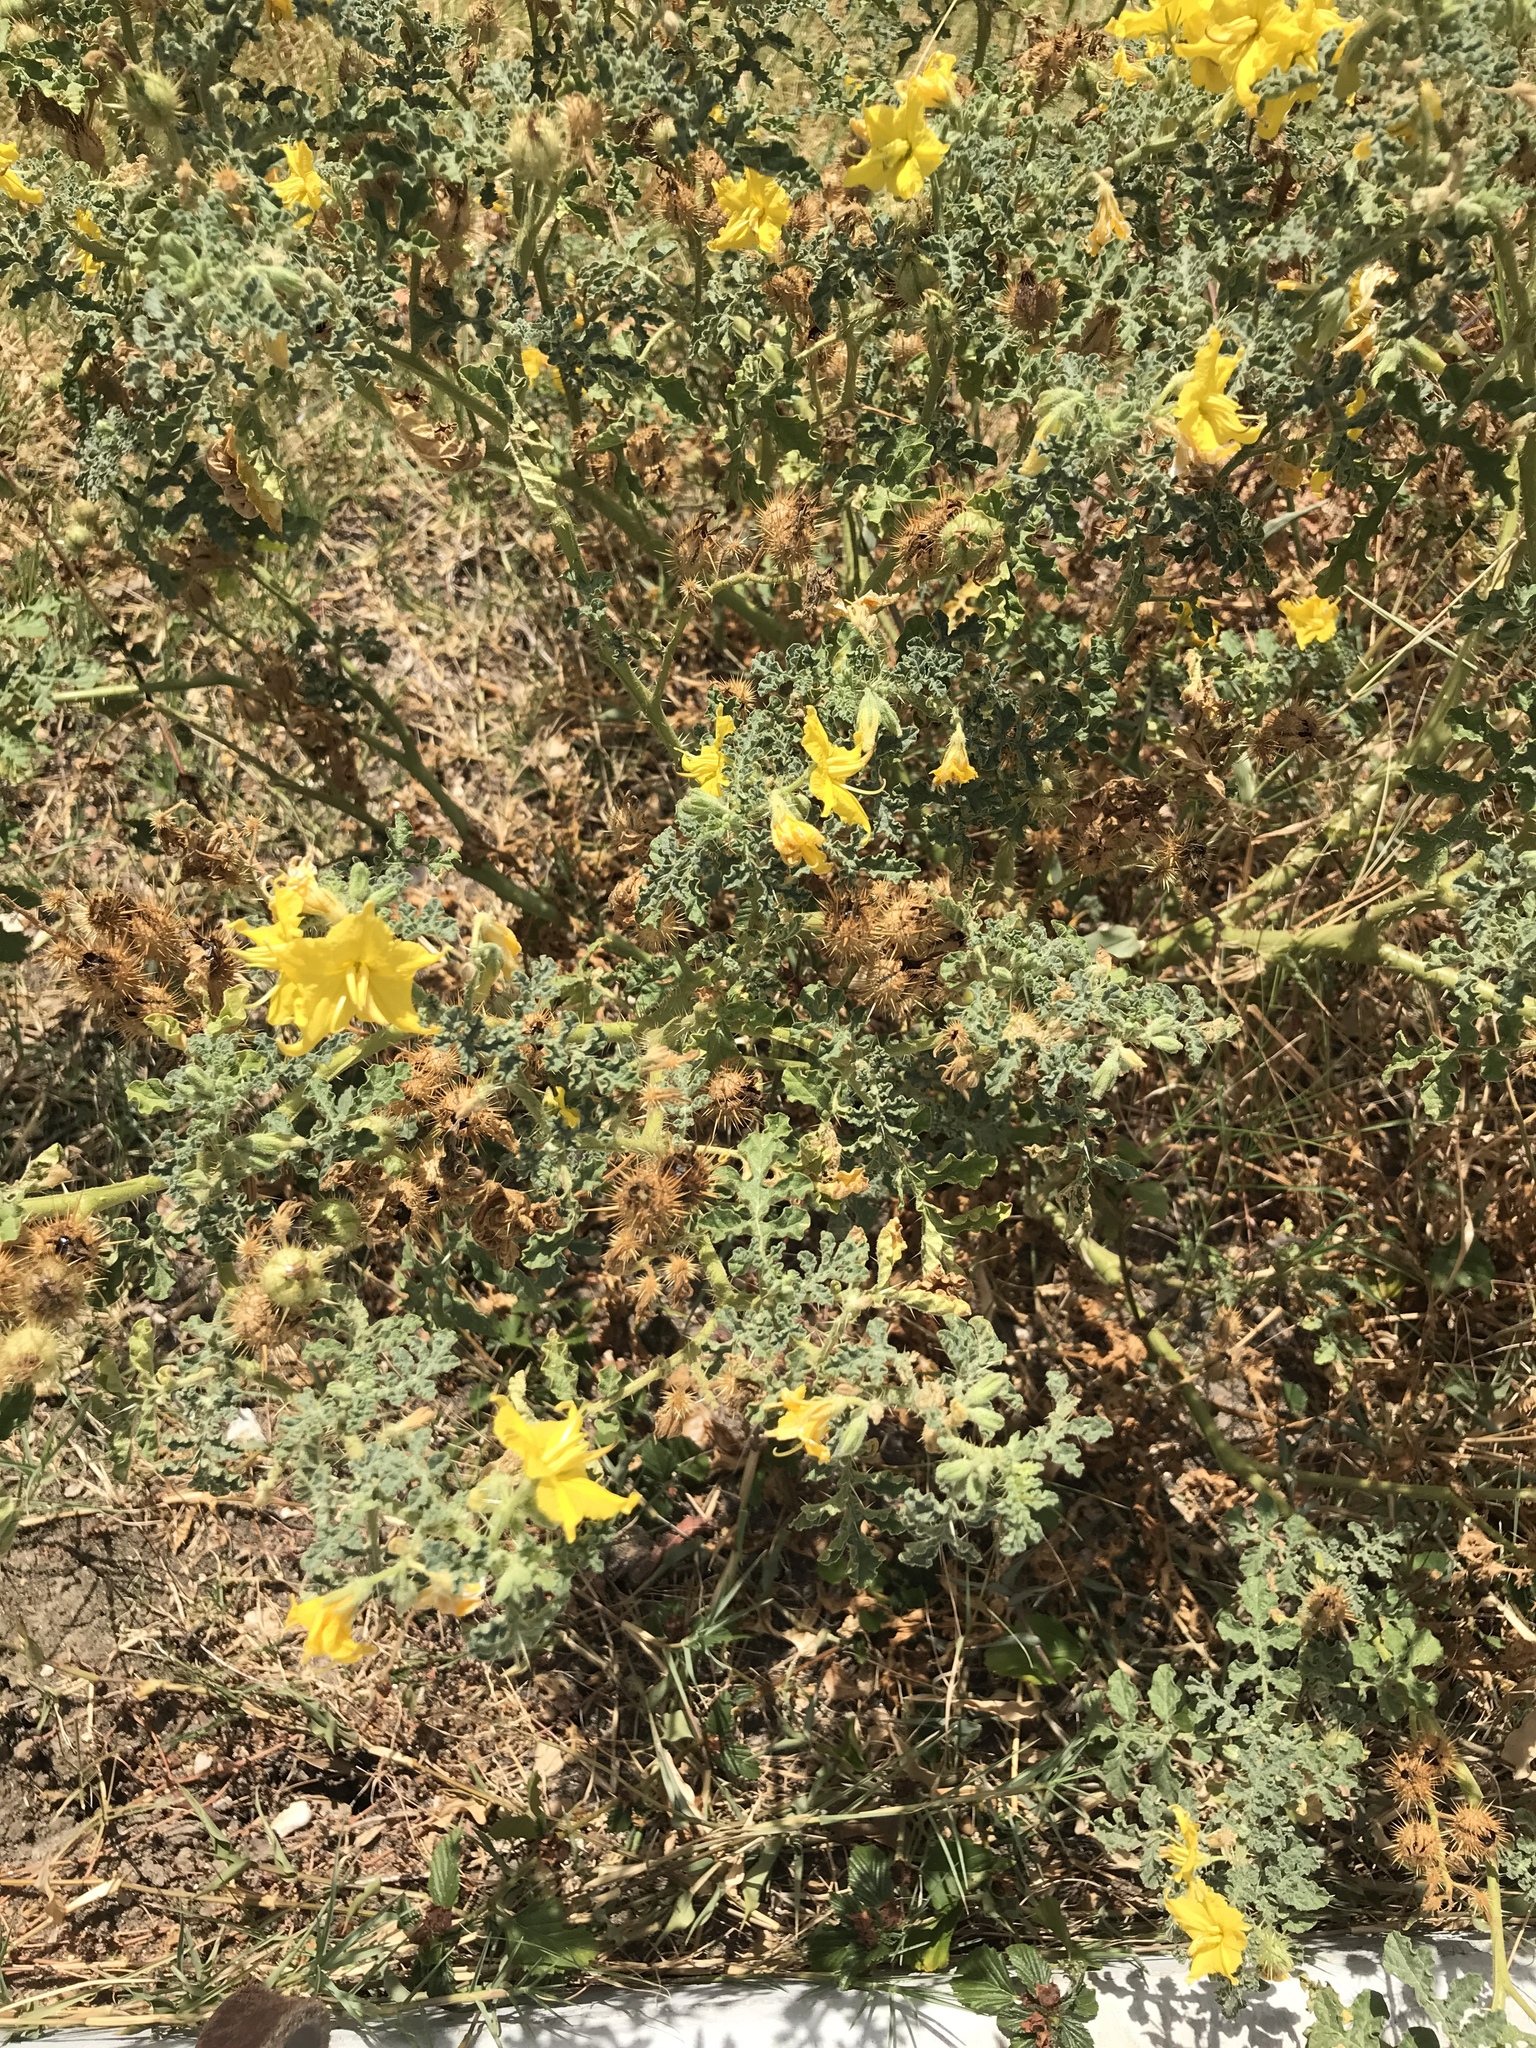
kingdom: Plantae
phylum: Tracheophyta
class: Magnoliopsida
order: Solanales
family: Solanaceae
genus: Solanum
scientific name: Solanum angustifolium
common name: Buffalobur nightshade
